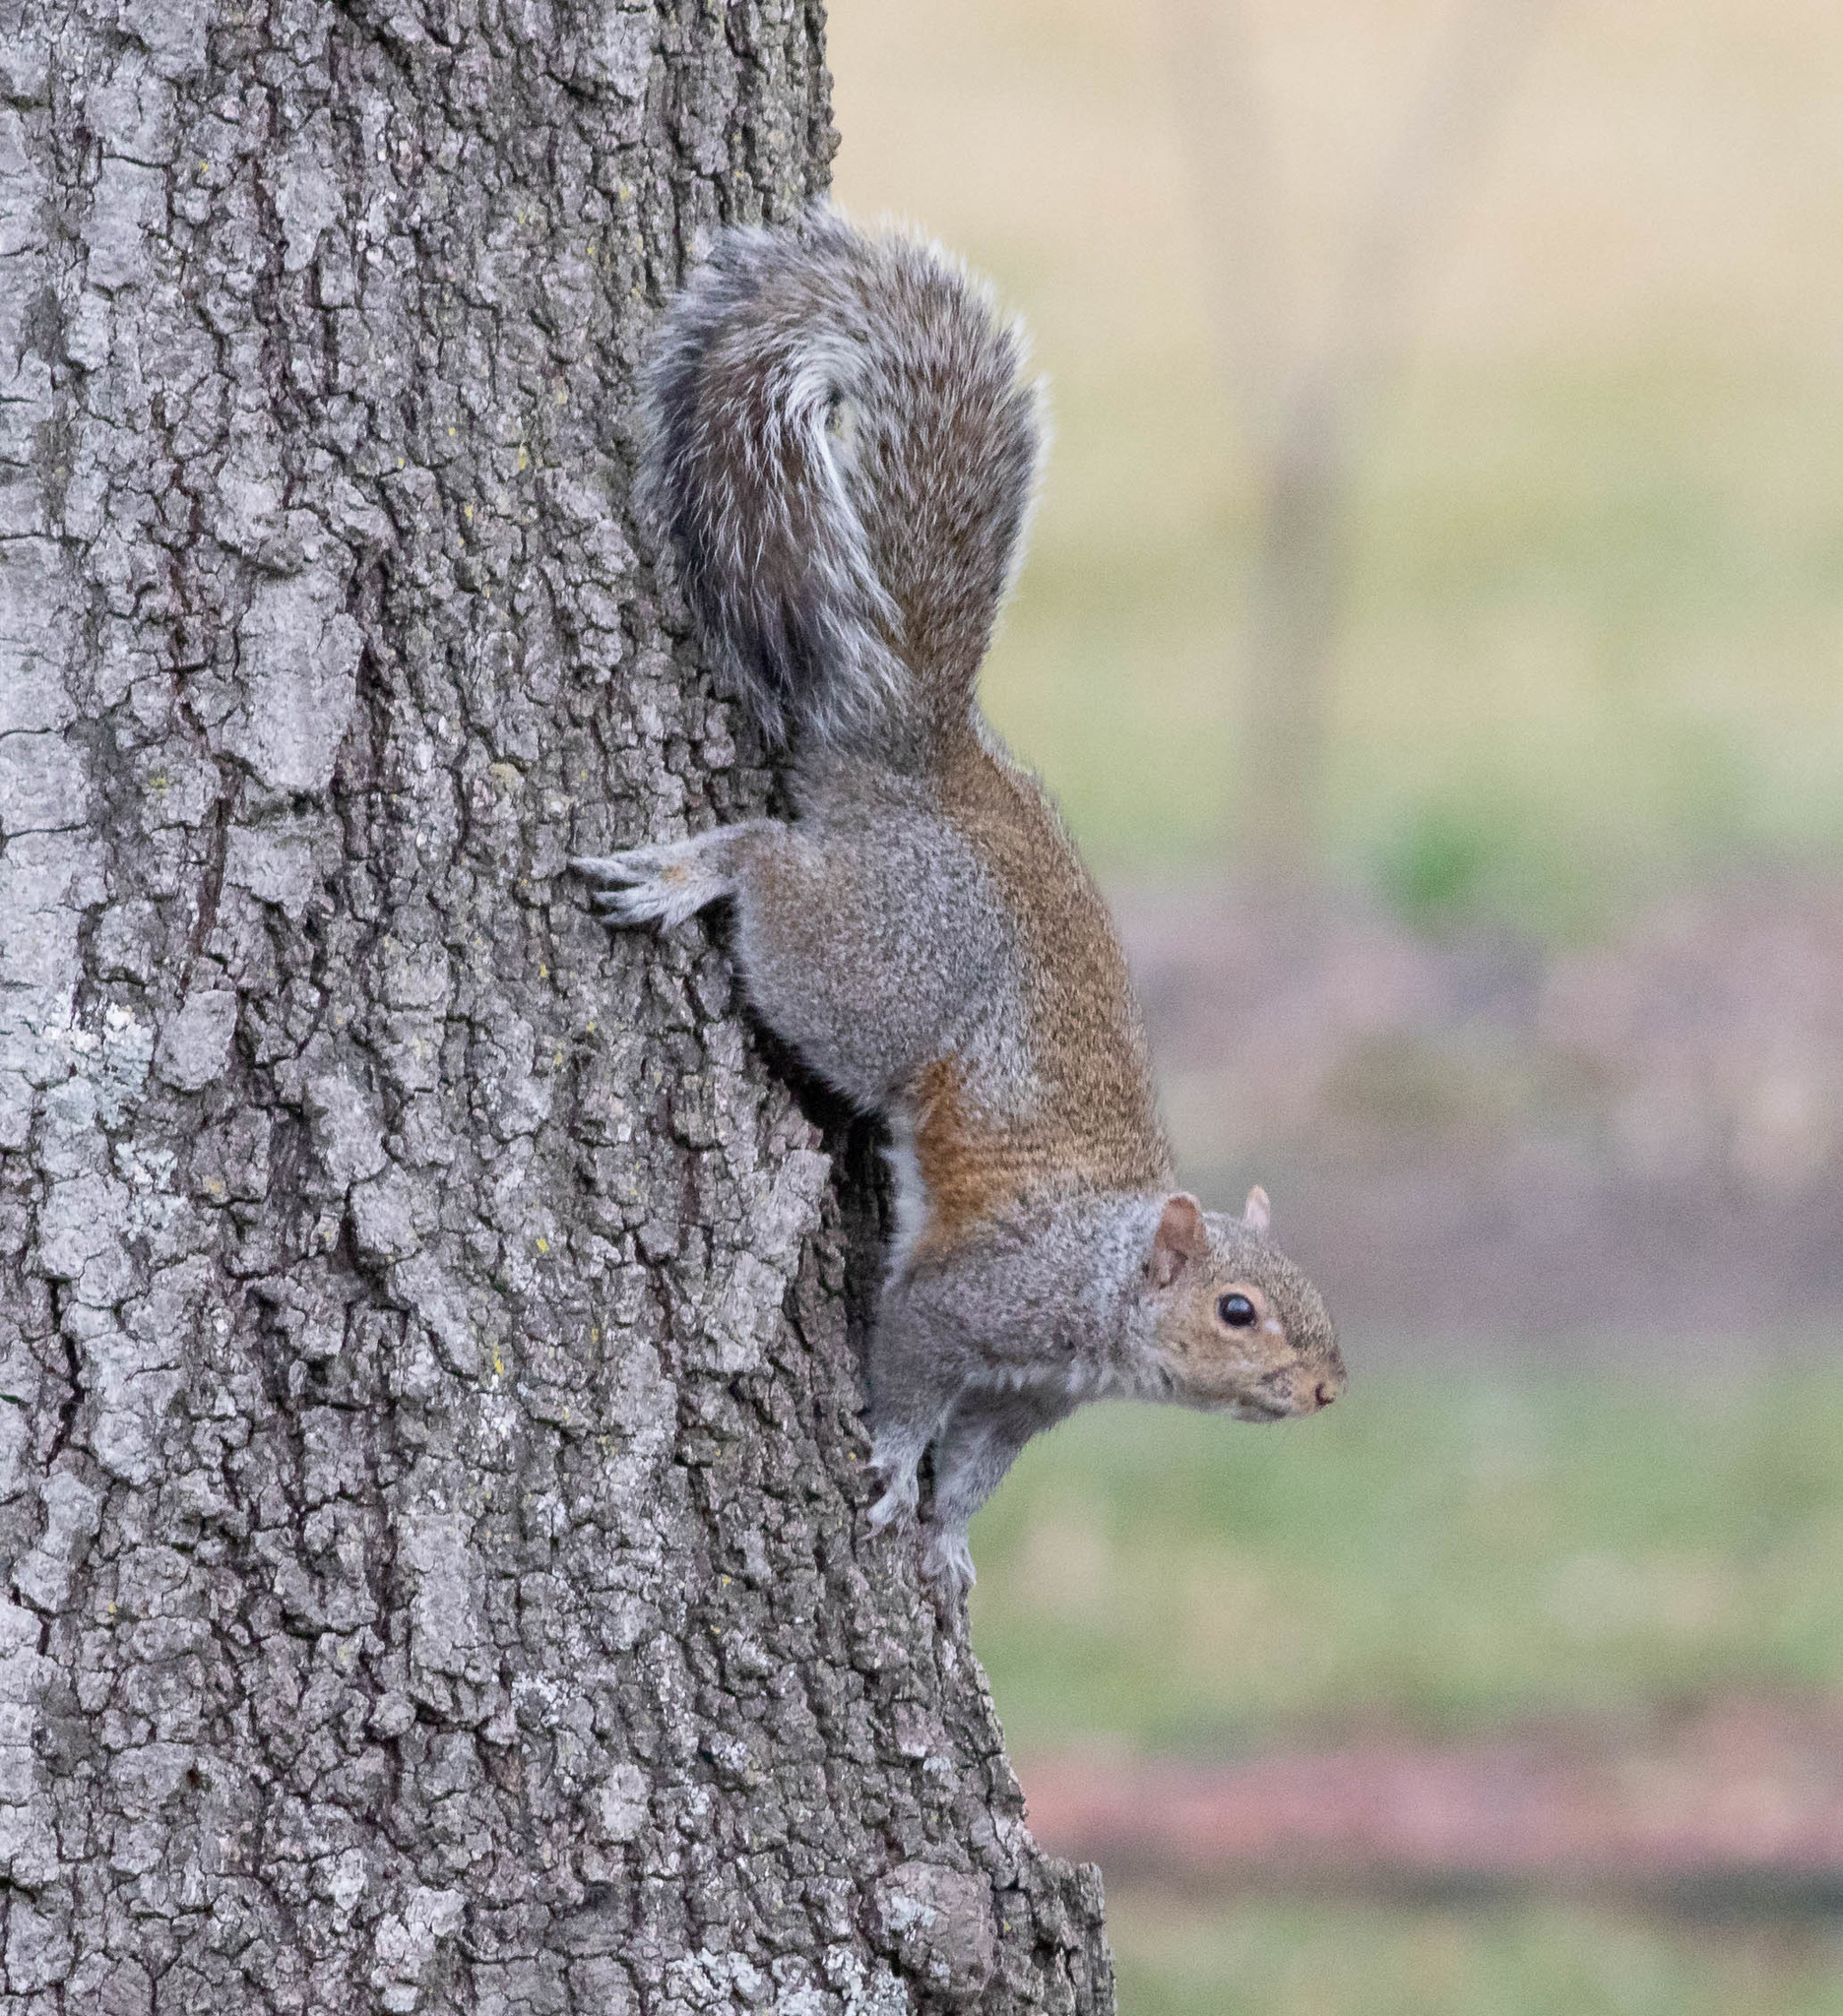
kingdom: Animalia
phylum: Chordata
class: Mammalia
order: Rodentia
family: Sciuridae
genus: Sciurus
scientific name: Sciurus carolinensis
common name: Eastern gray squirrel
